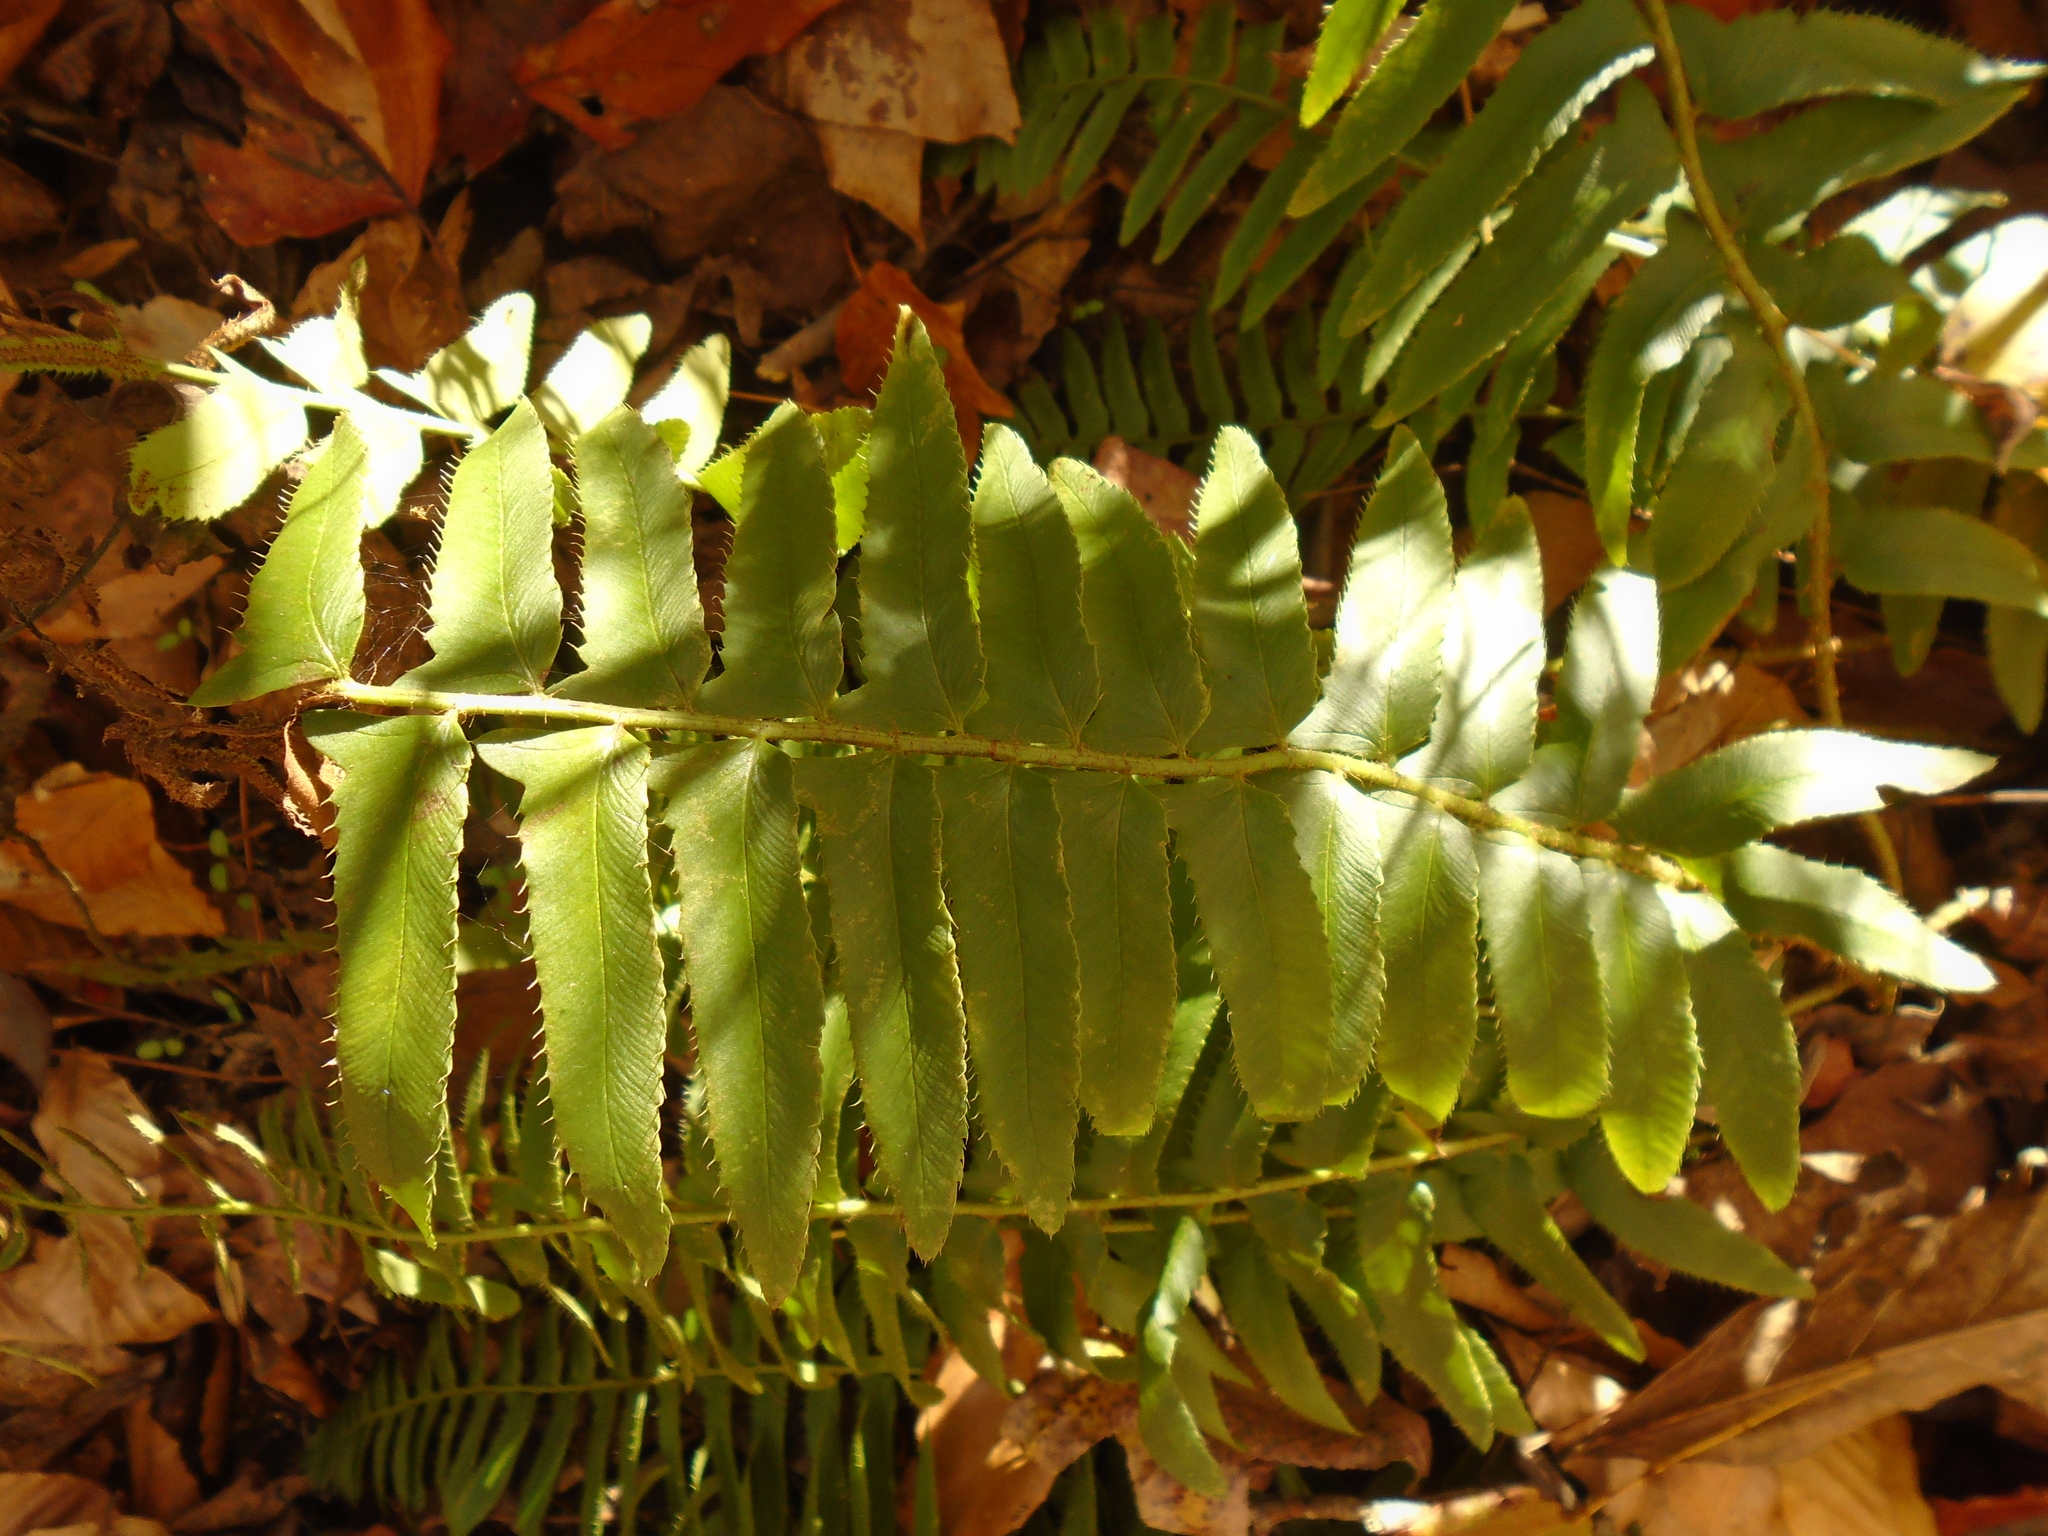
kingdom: Plantae
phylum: Tracheophyta
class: Polypodiopsida
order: Polypodiales
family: Dryopteridaceae
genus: Polystichum
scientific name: Polystichum acrostichoides
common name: Christmas fern
